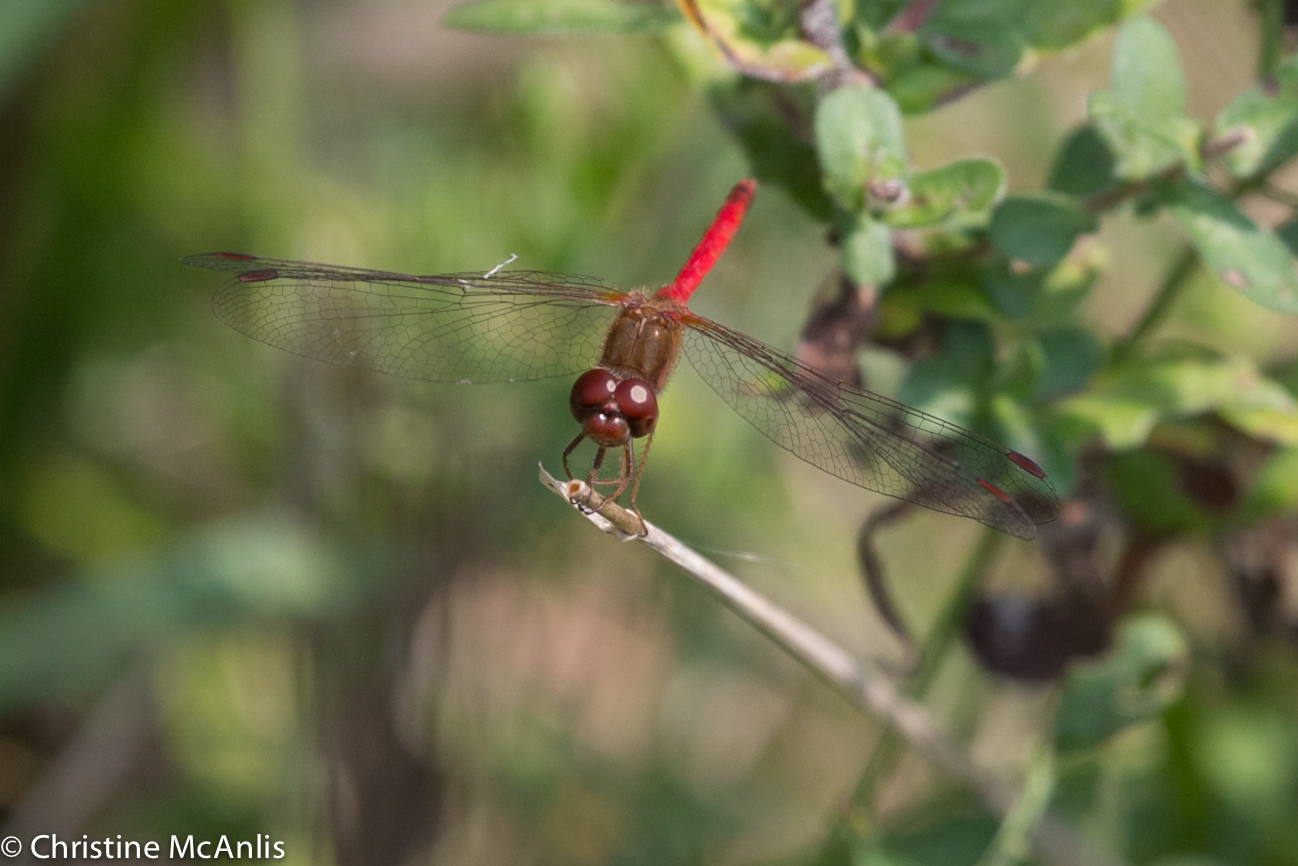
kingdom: Animalia
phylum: Arthropoda
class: Insecta
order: Odonata
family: Libellulidae
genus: Sympetrum
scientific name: Sympetrum vicinum
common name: Autumn meadowhawk
